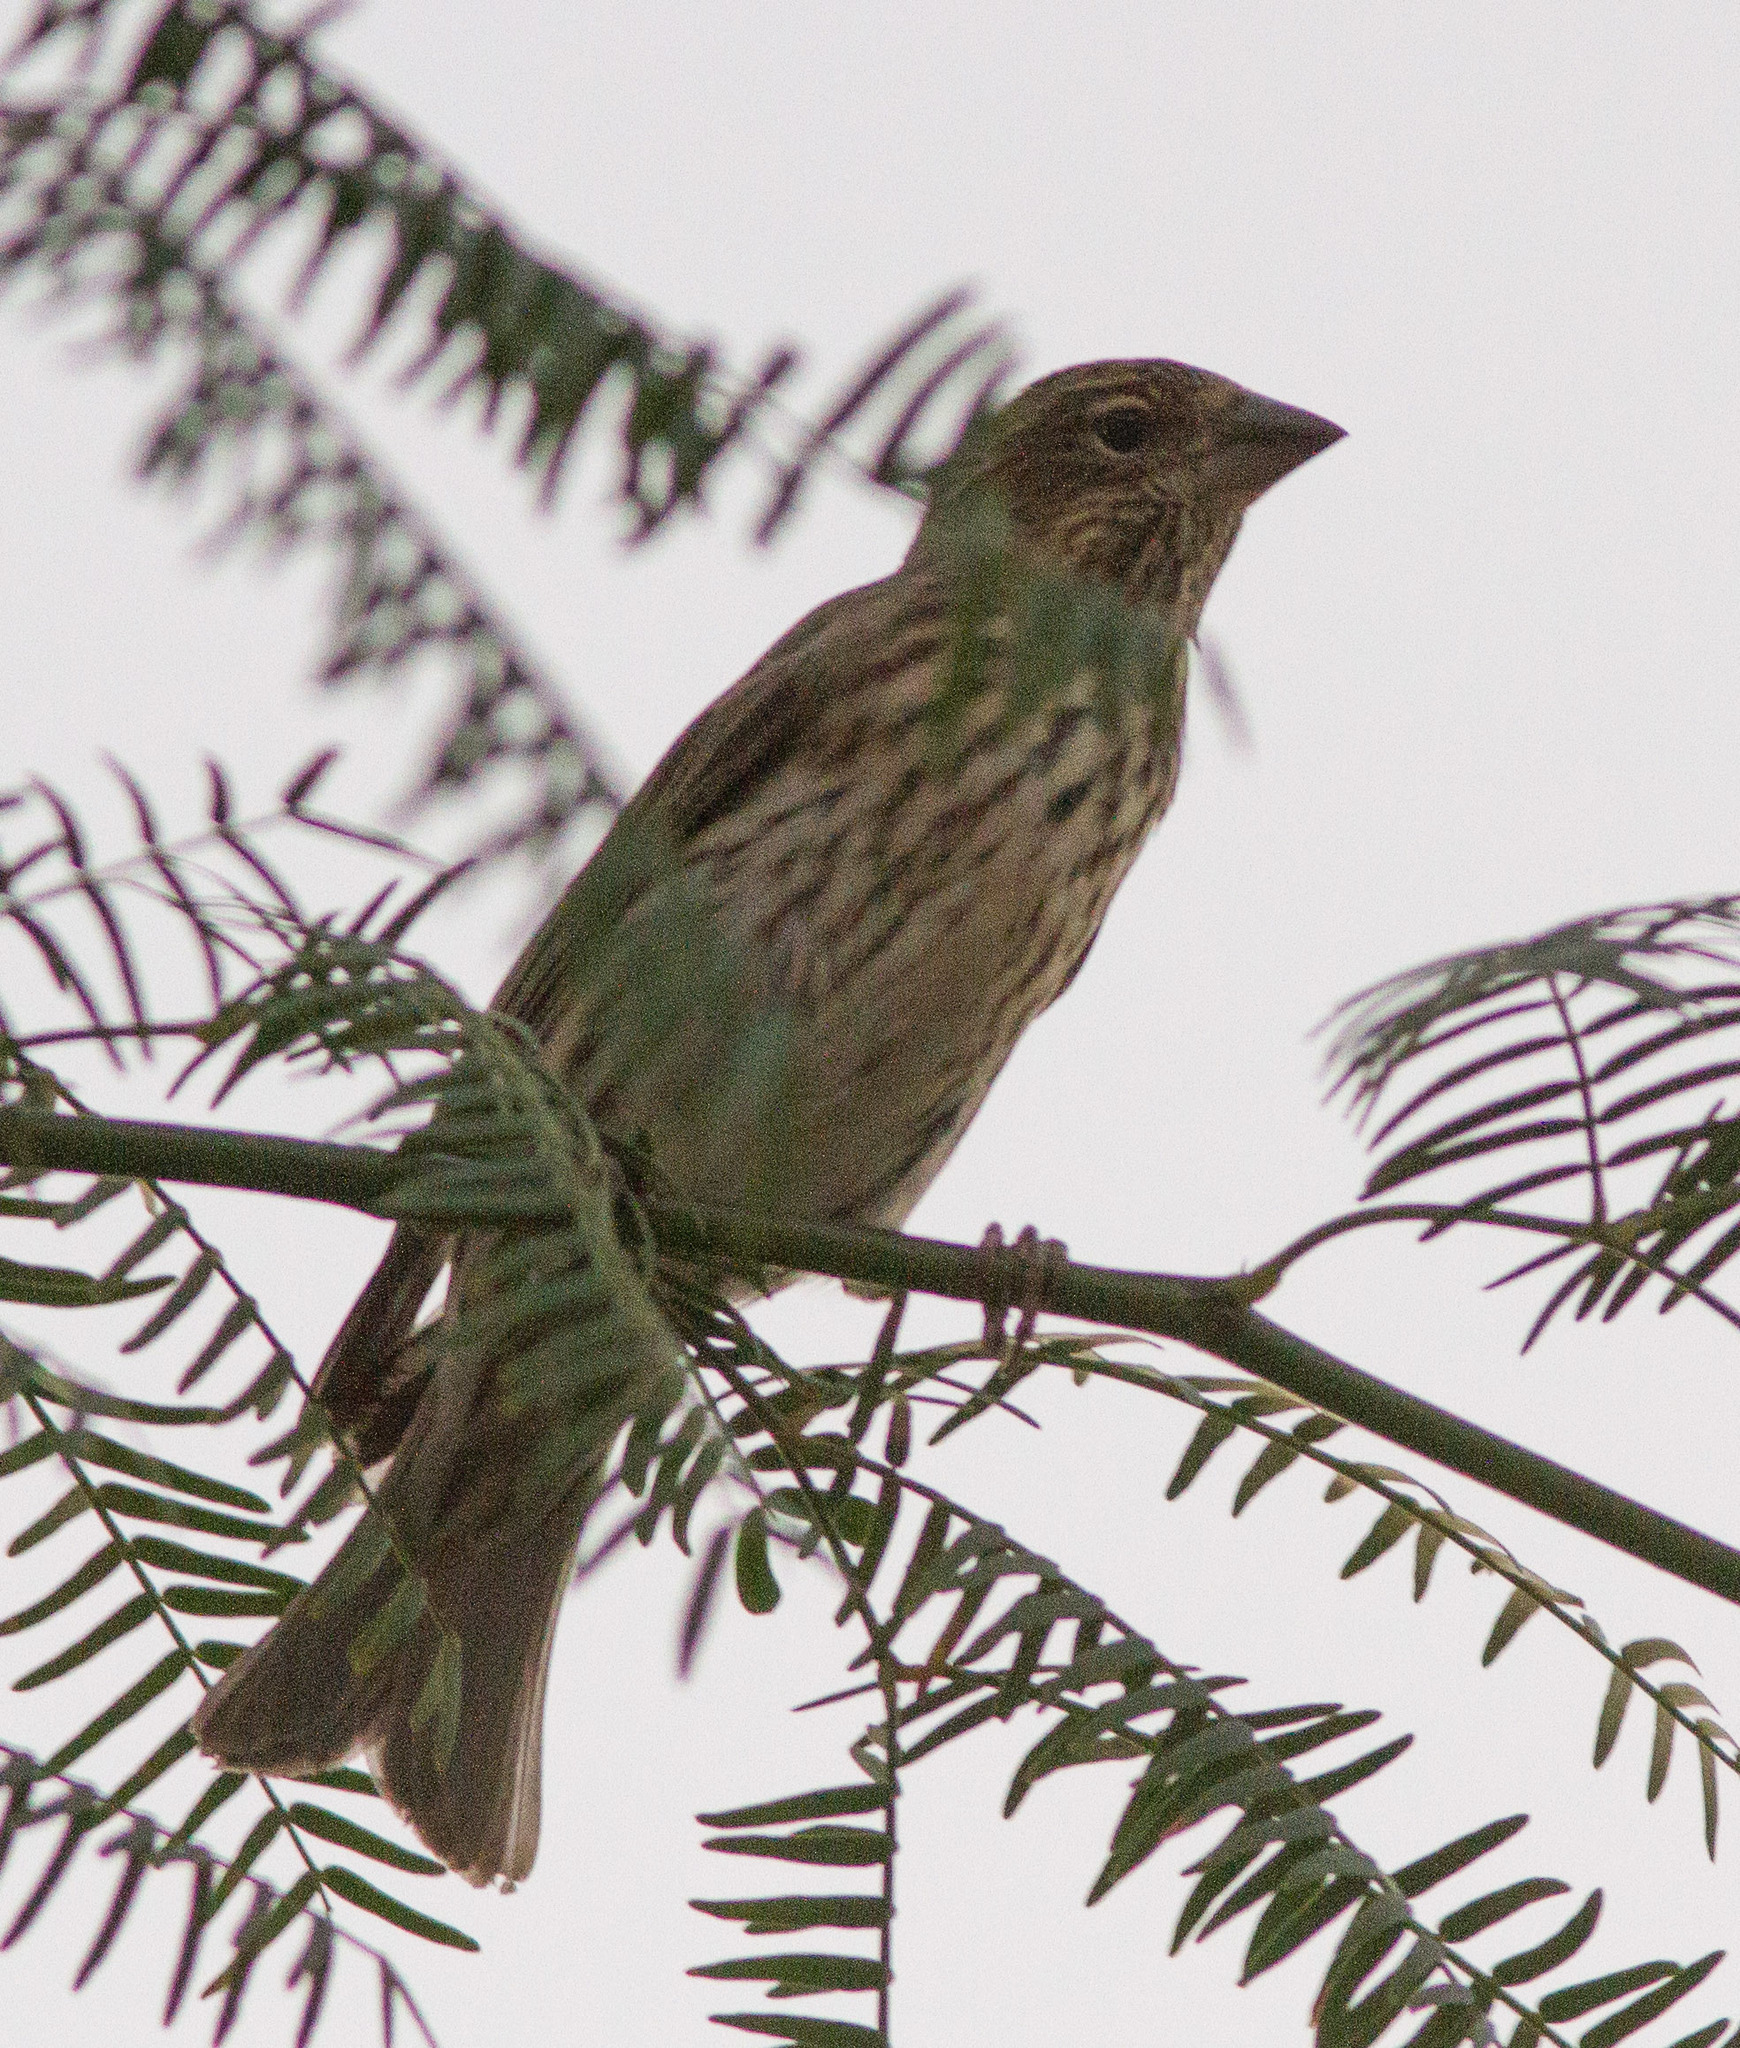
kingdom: Animalia
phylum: Chordata
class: Aves
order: Passeriformes
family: Fringillidae
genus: Haemorhous
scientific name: Haemorhous cassinii
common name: Cassin's finch
